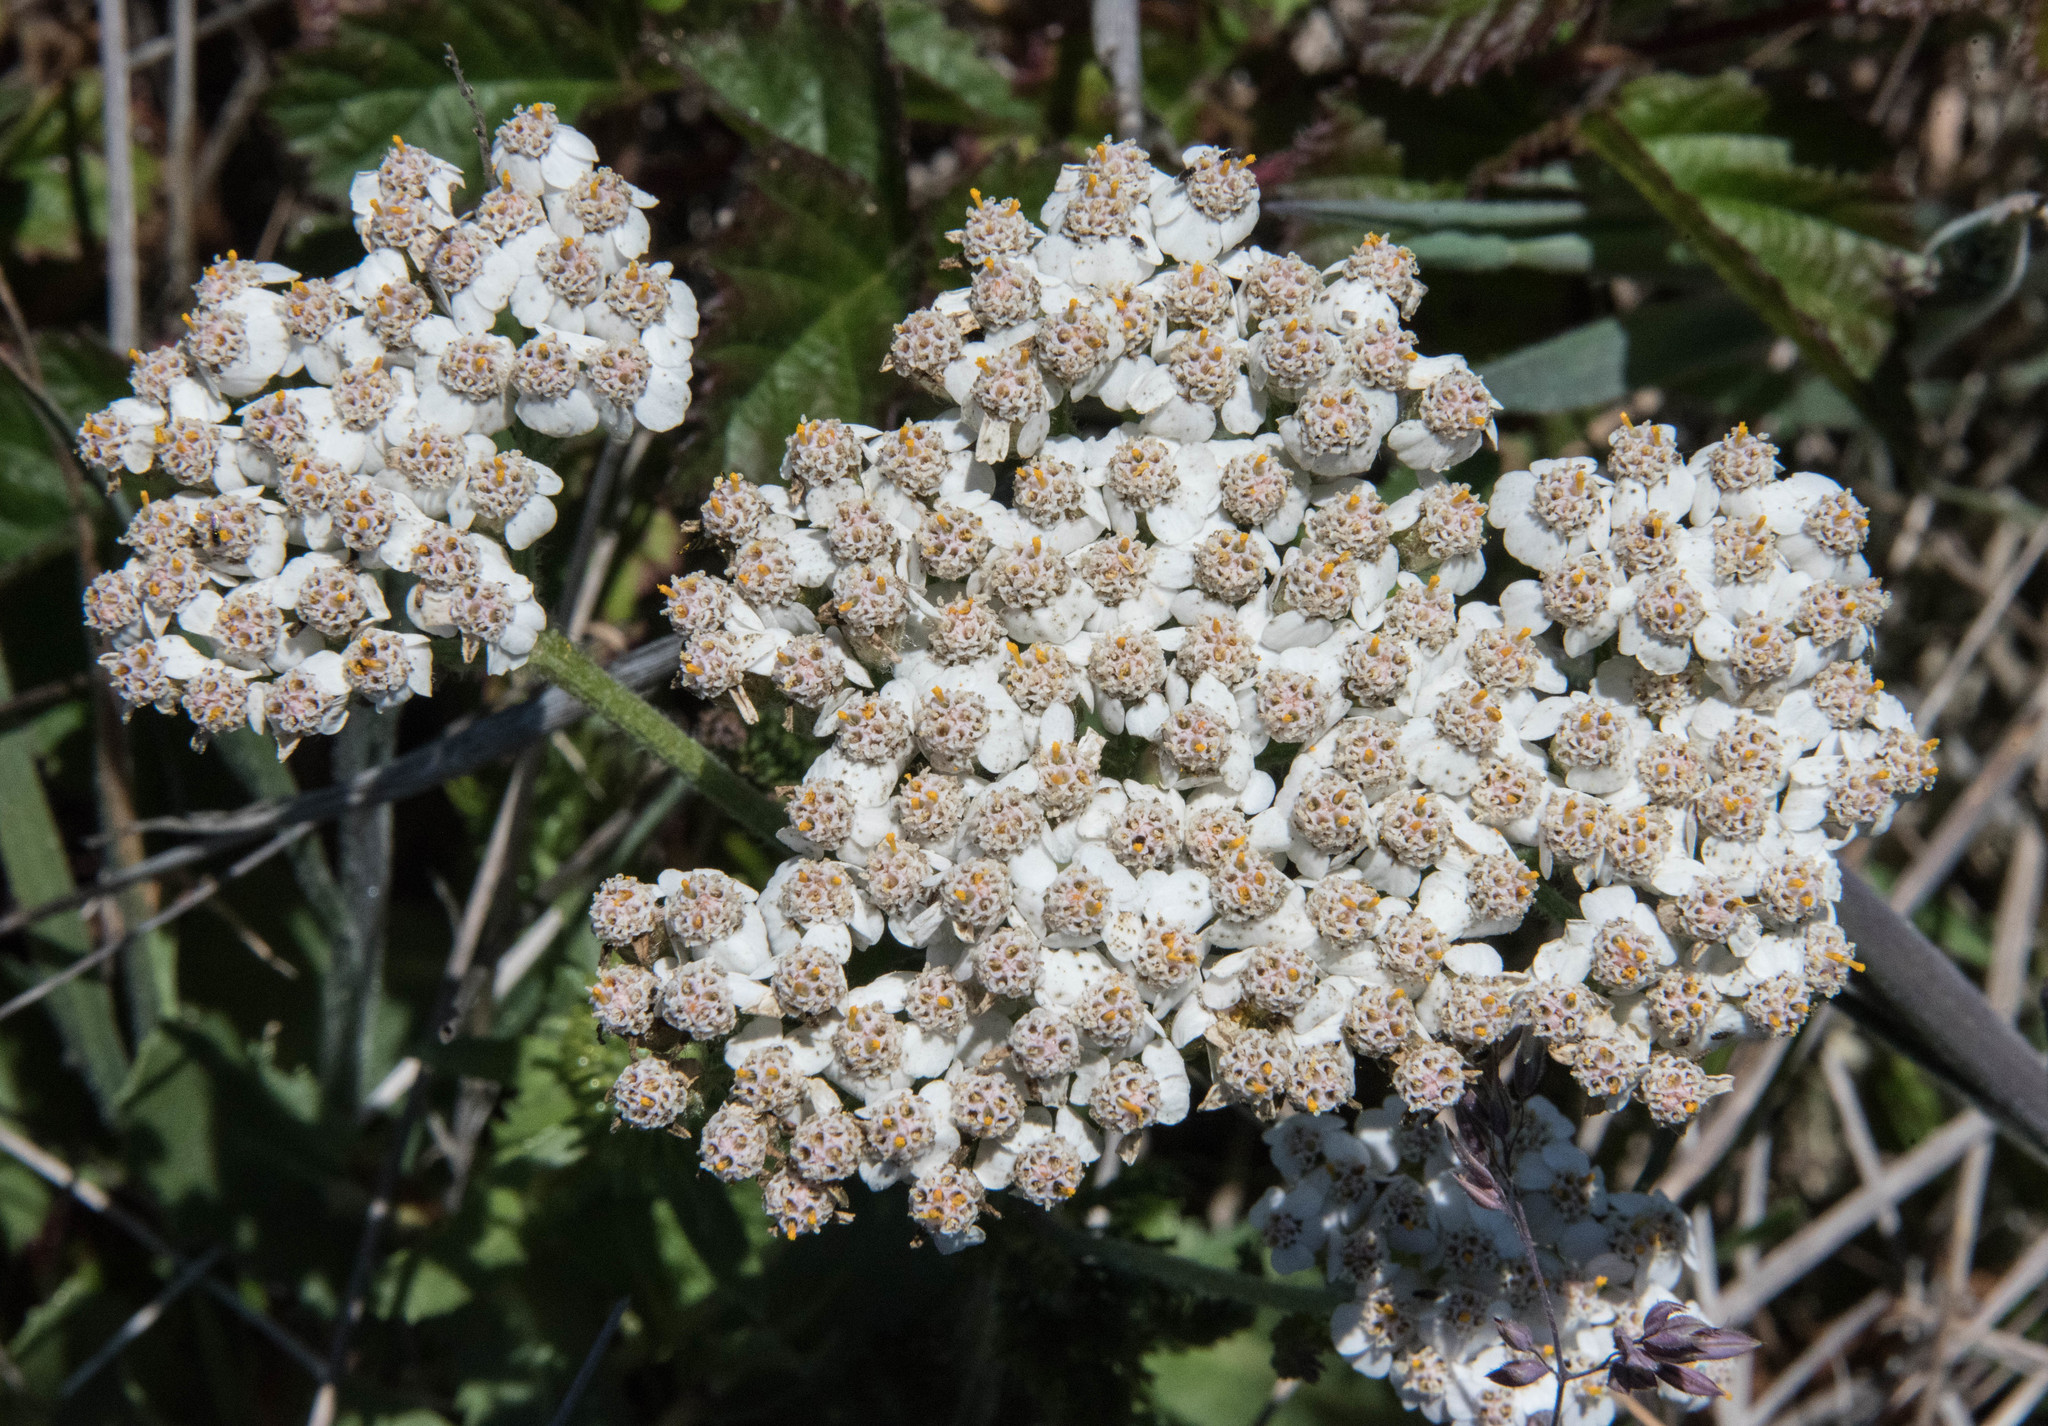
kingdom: Plantae
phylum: Tracheophyta
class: Magnoliopsida
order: Asterales
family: Asteraceae
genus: Achillea
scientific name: Achillea millefolium
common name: Yarrow
